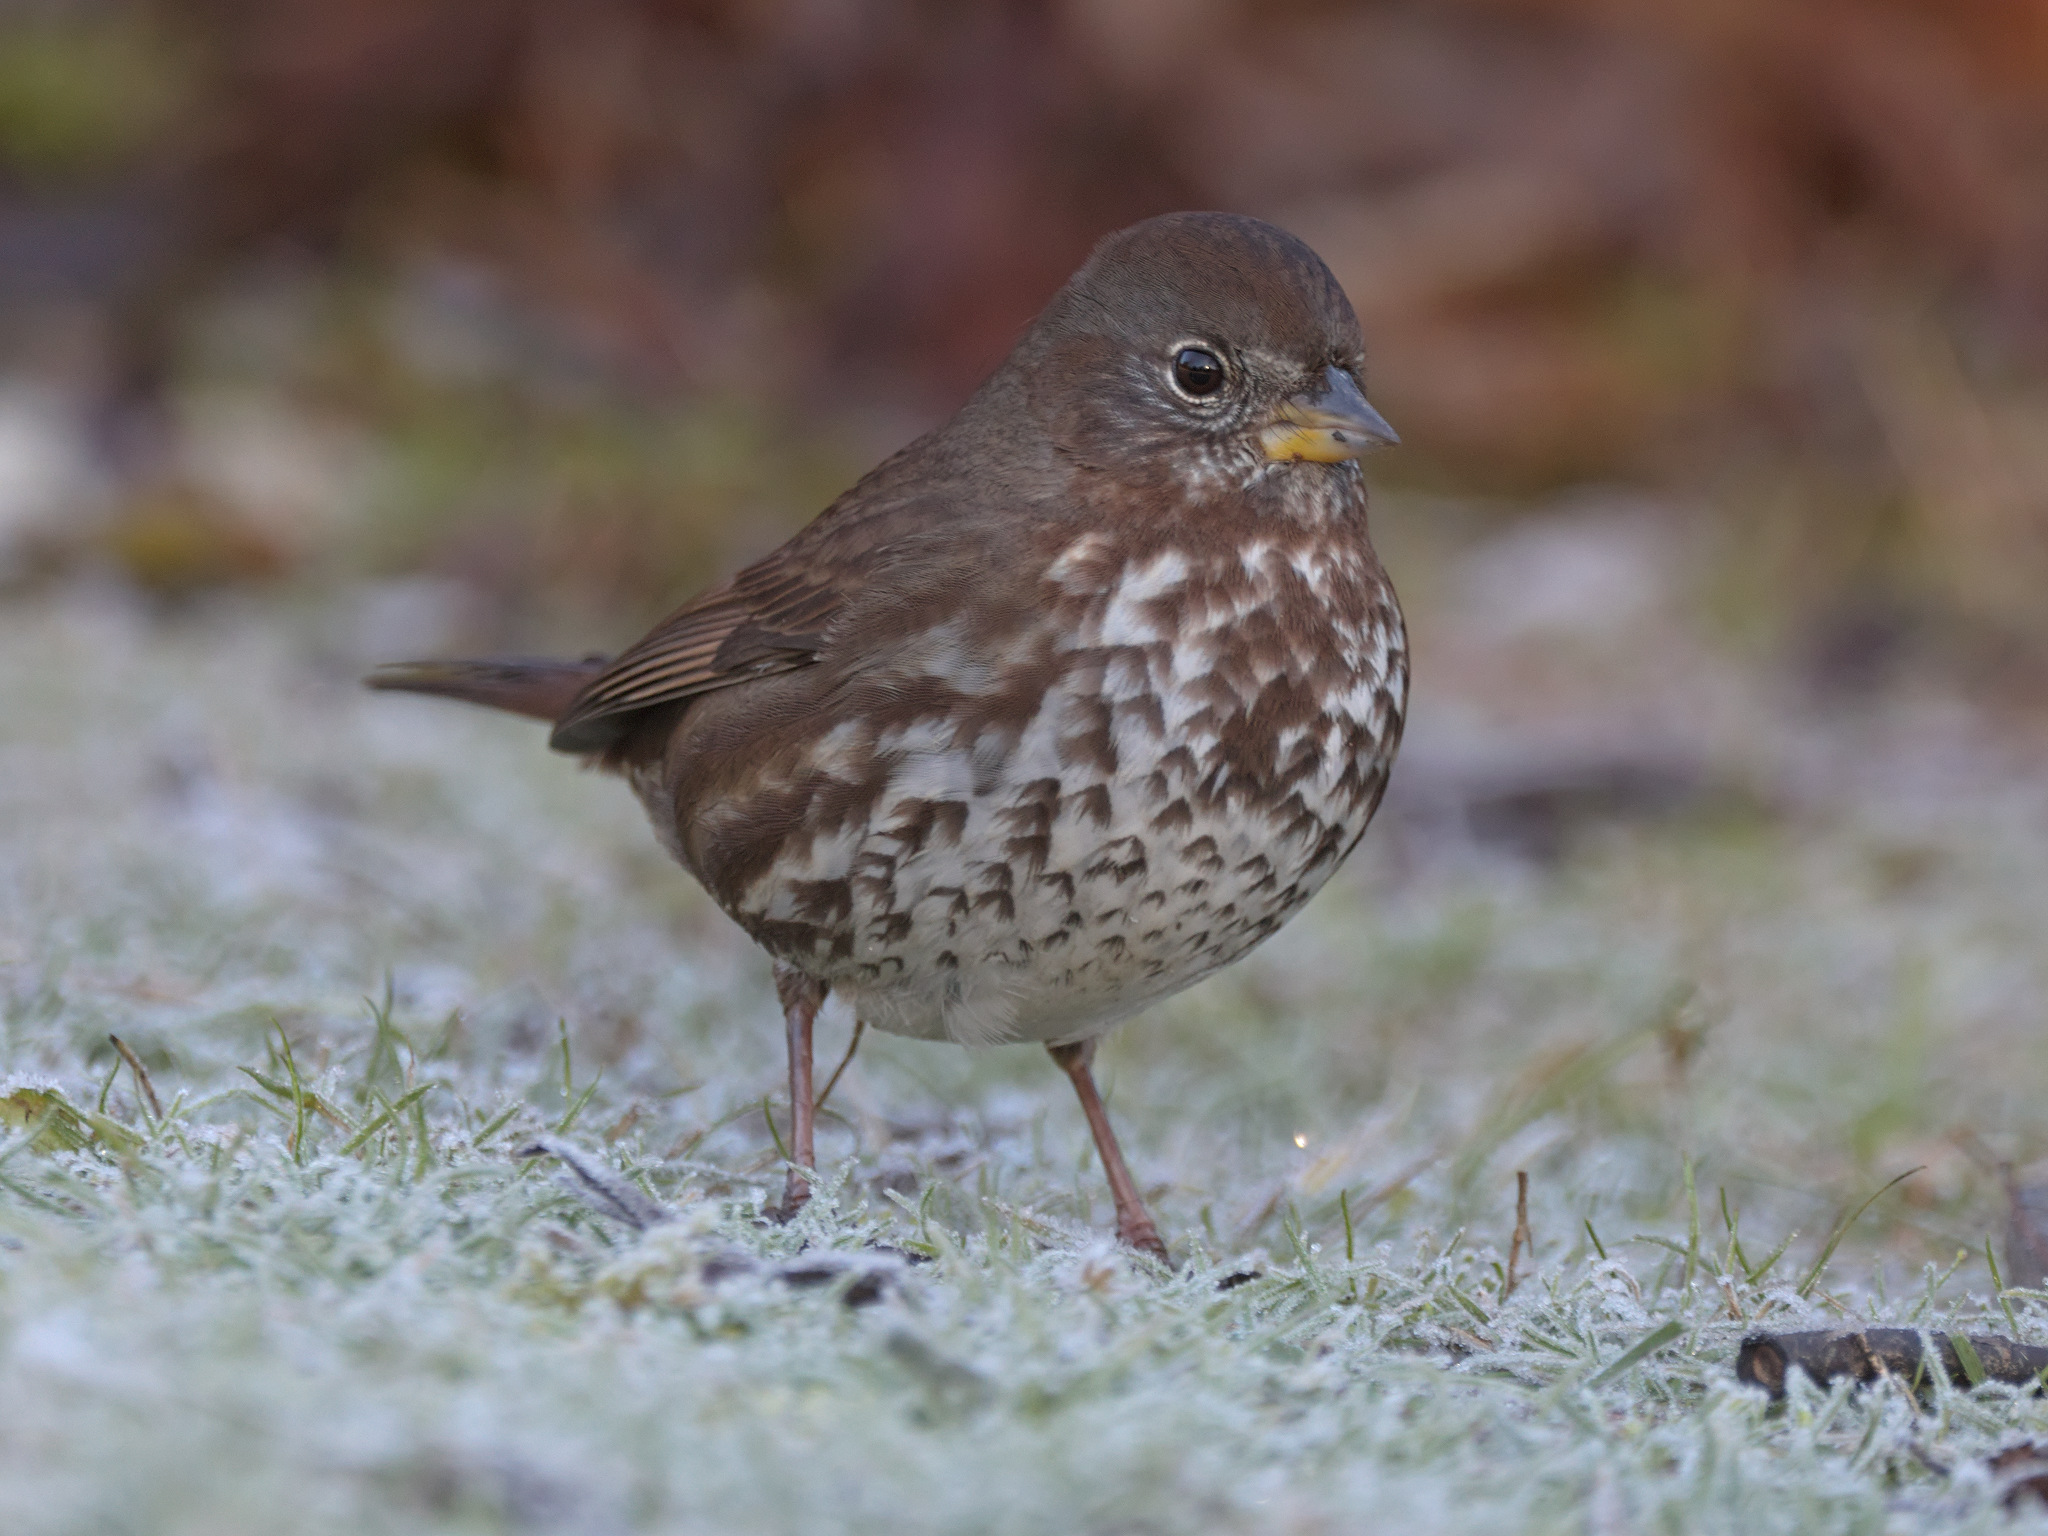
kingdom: Animalia
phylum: Chordata
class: Aves
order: Passeriformes
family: Passerellidae
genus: Passerella
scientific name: Passerella iliaca
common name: Fox sparrow
